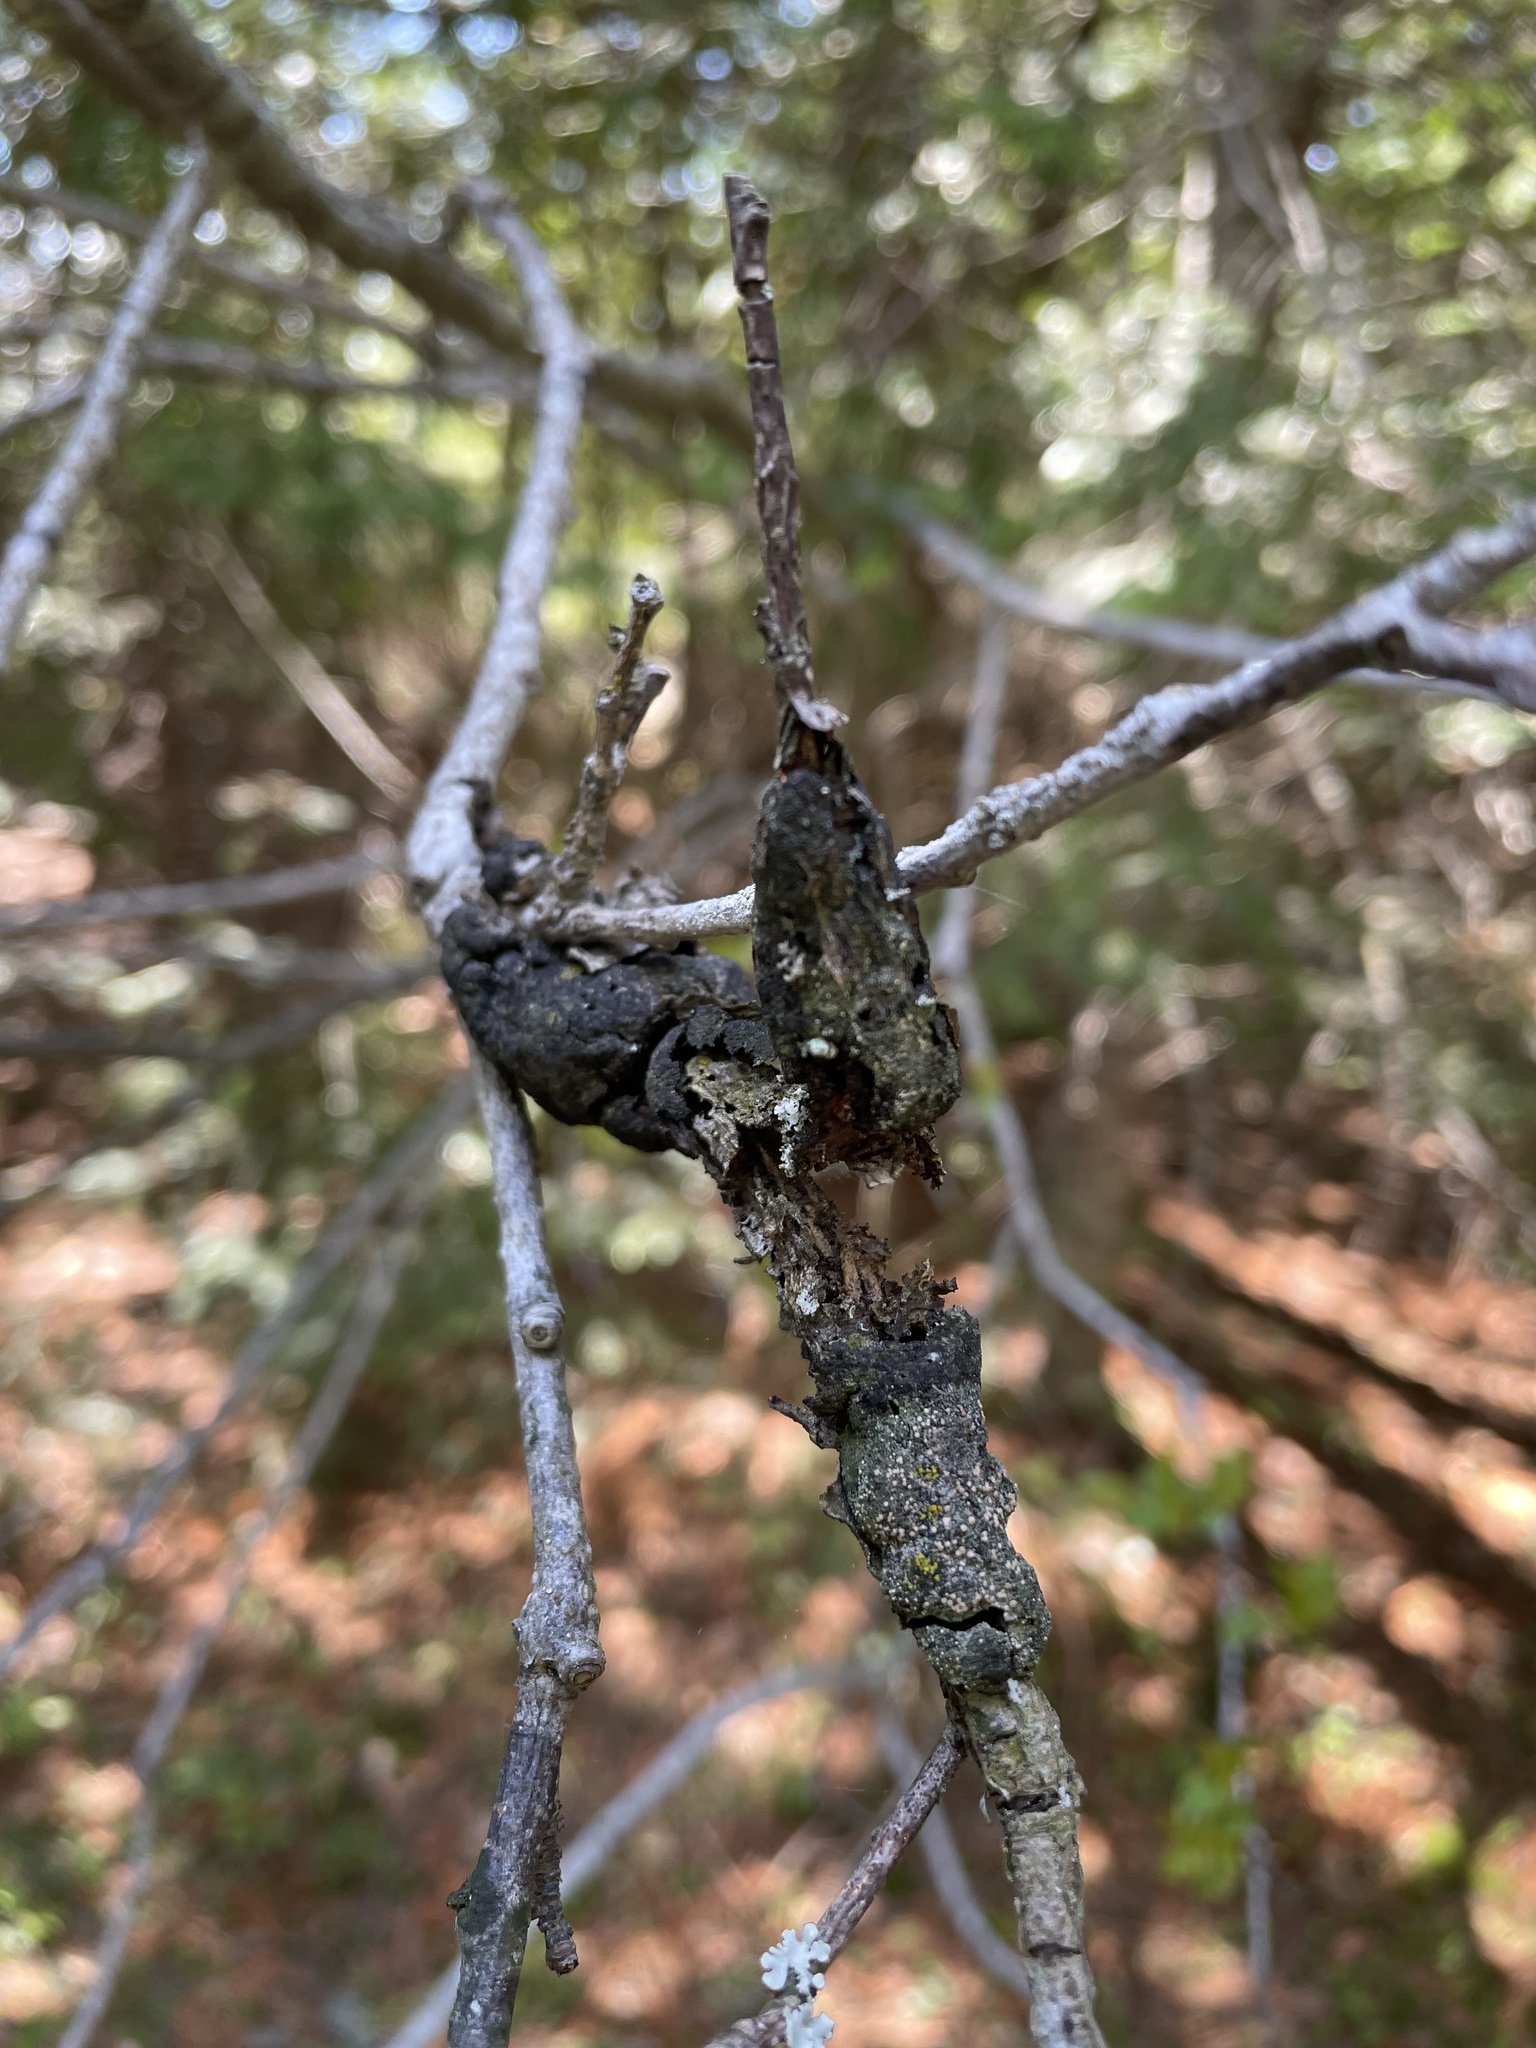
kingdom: Fungi
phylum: Ascomycota
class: Dothideomycetes
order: Venturiales
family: Venturiaceae
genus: Apiosporina
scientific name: Apiosporina morbosa
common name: Black knot
